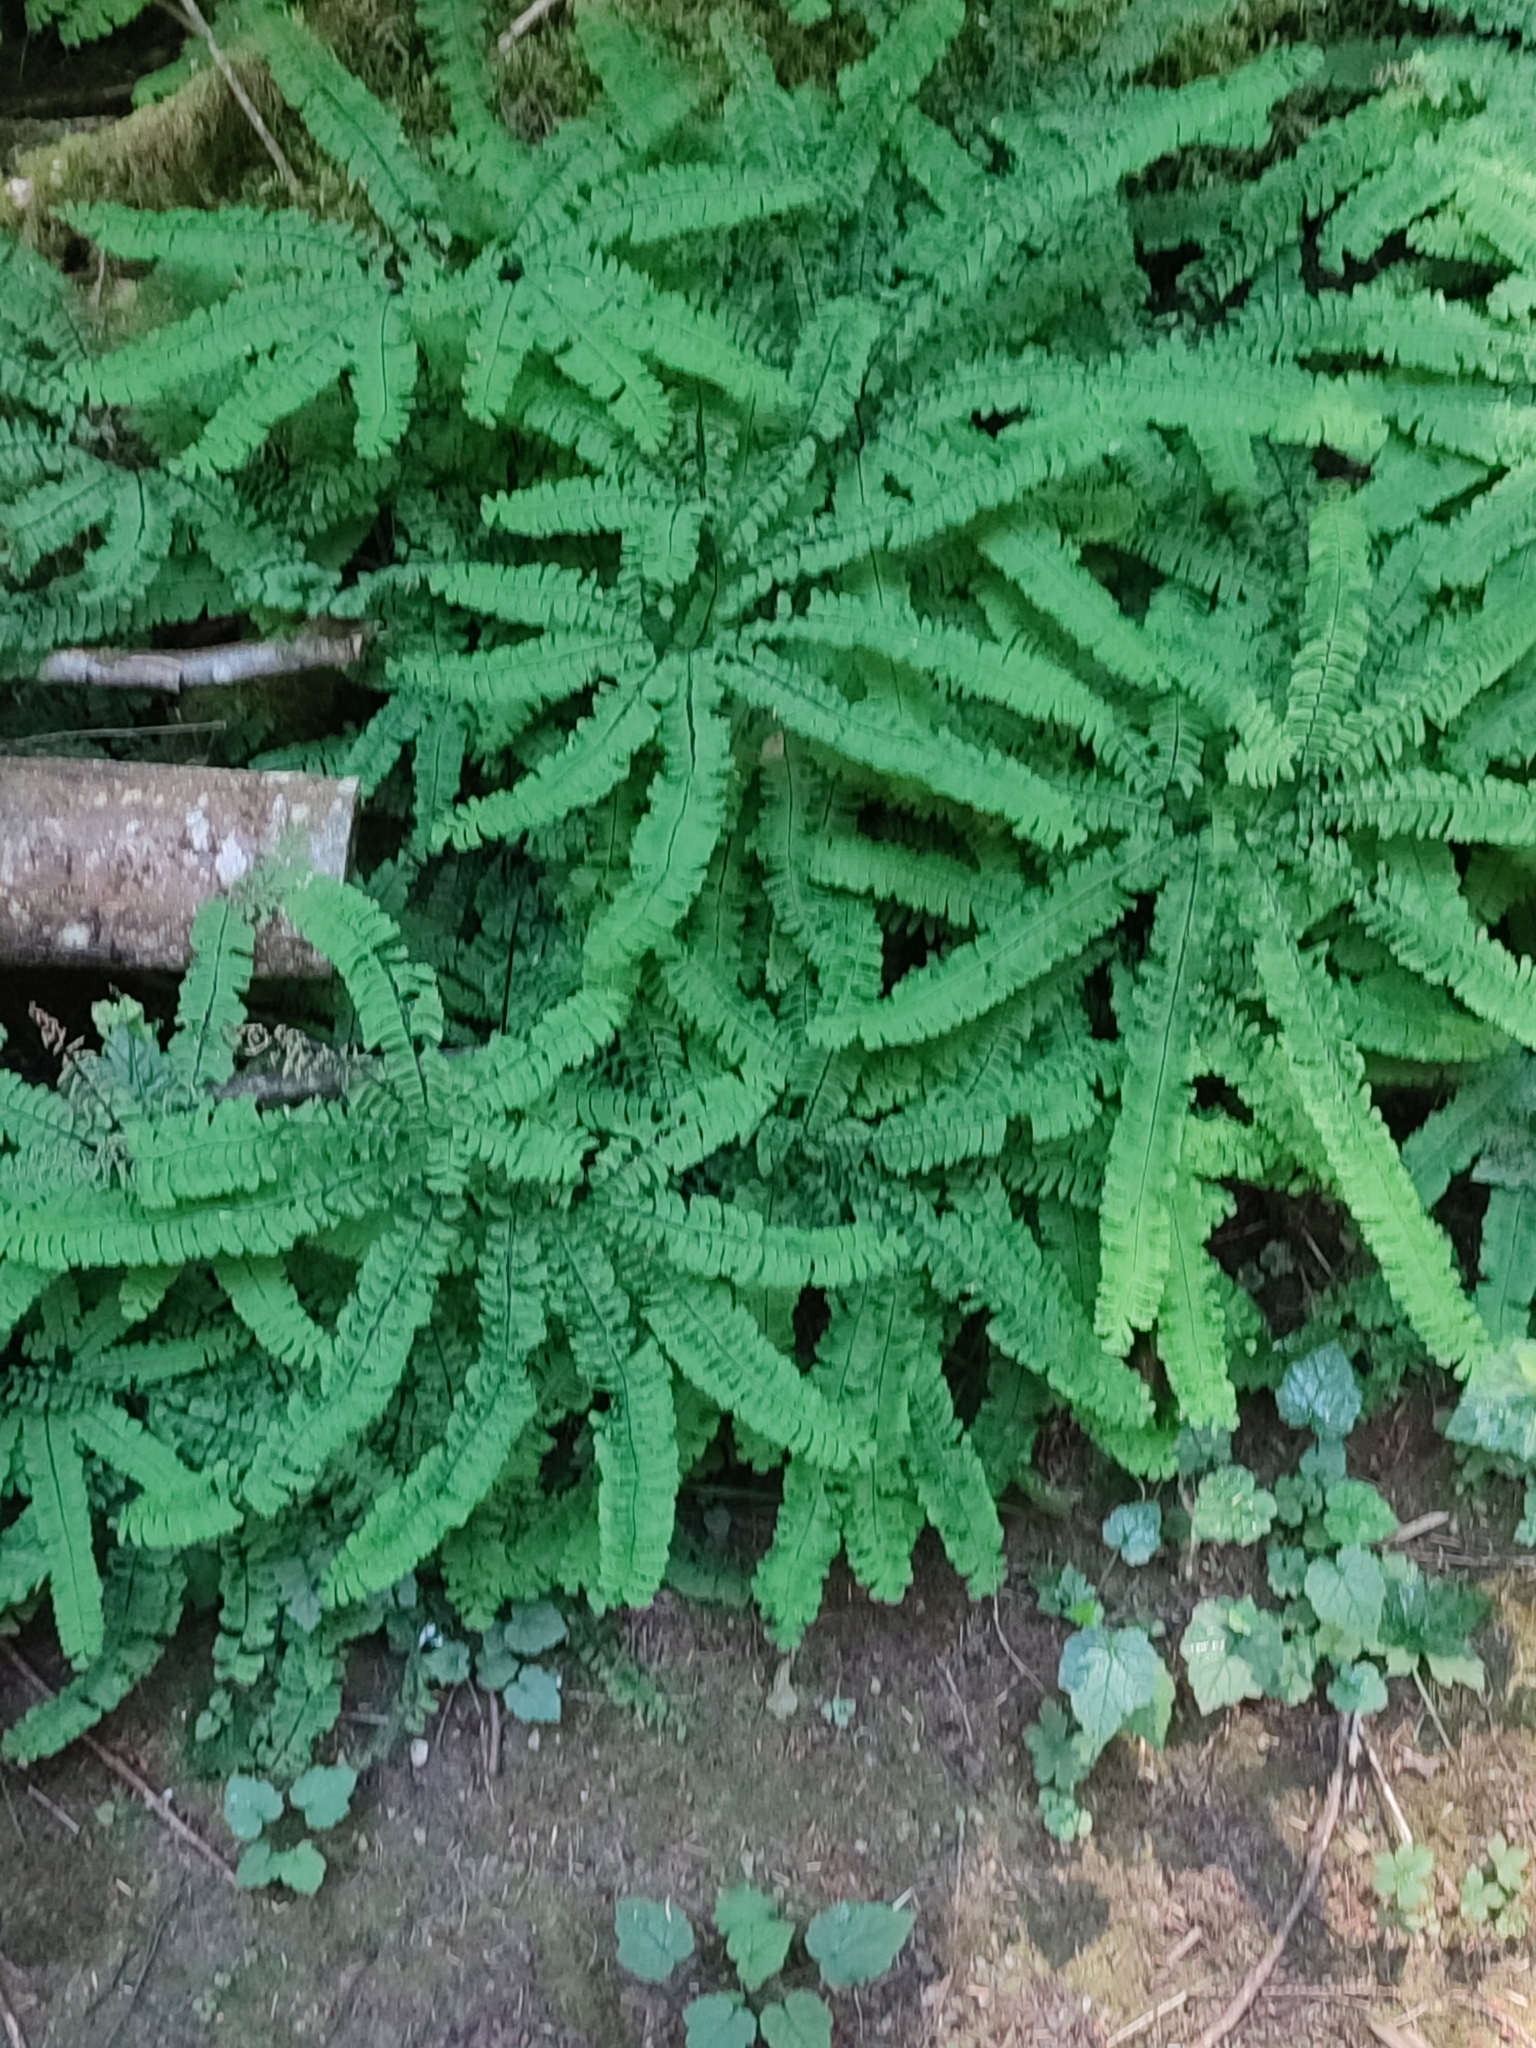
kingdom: Plantae
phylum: Tracheophyta
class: Polypodiopsida
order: Polypodiales
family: Pteridaceae
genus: Adiantum
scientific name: Adiantum aleuticum
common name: Aleutian maidenhair fern
